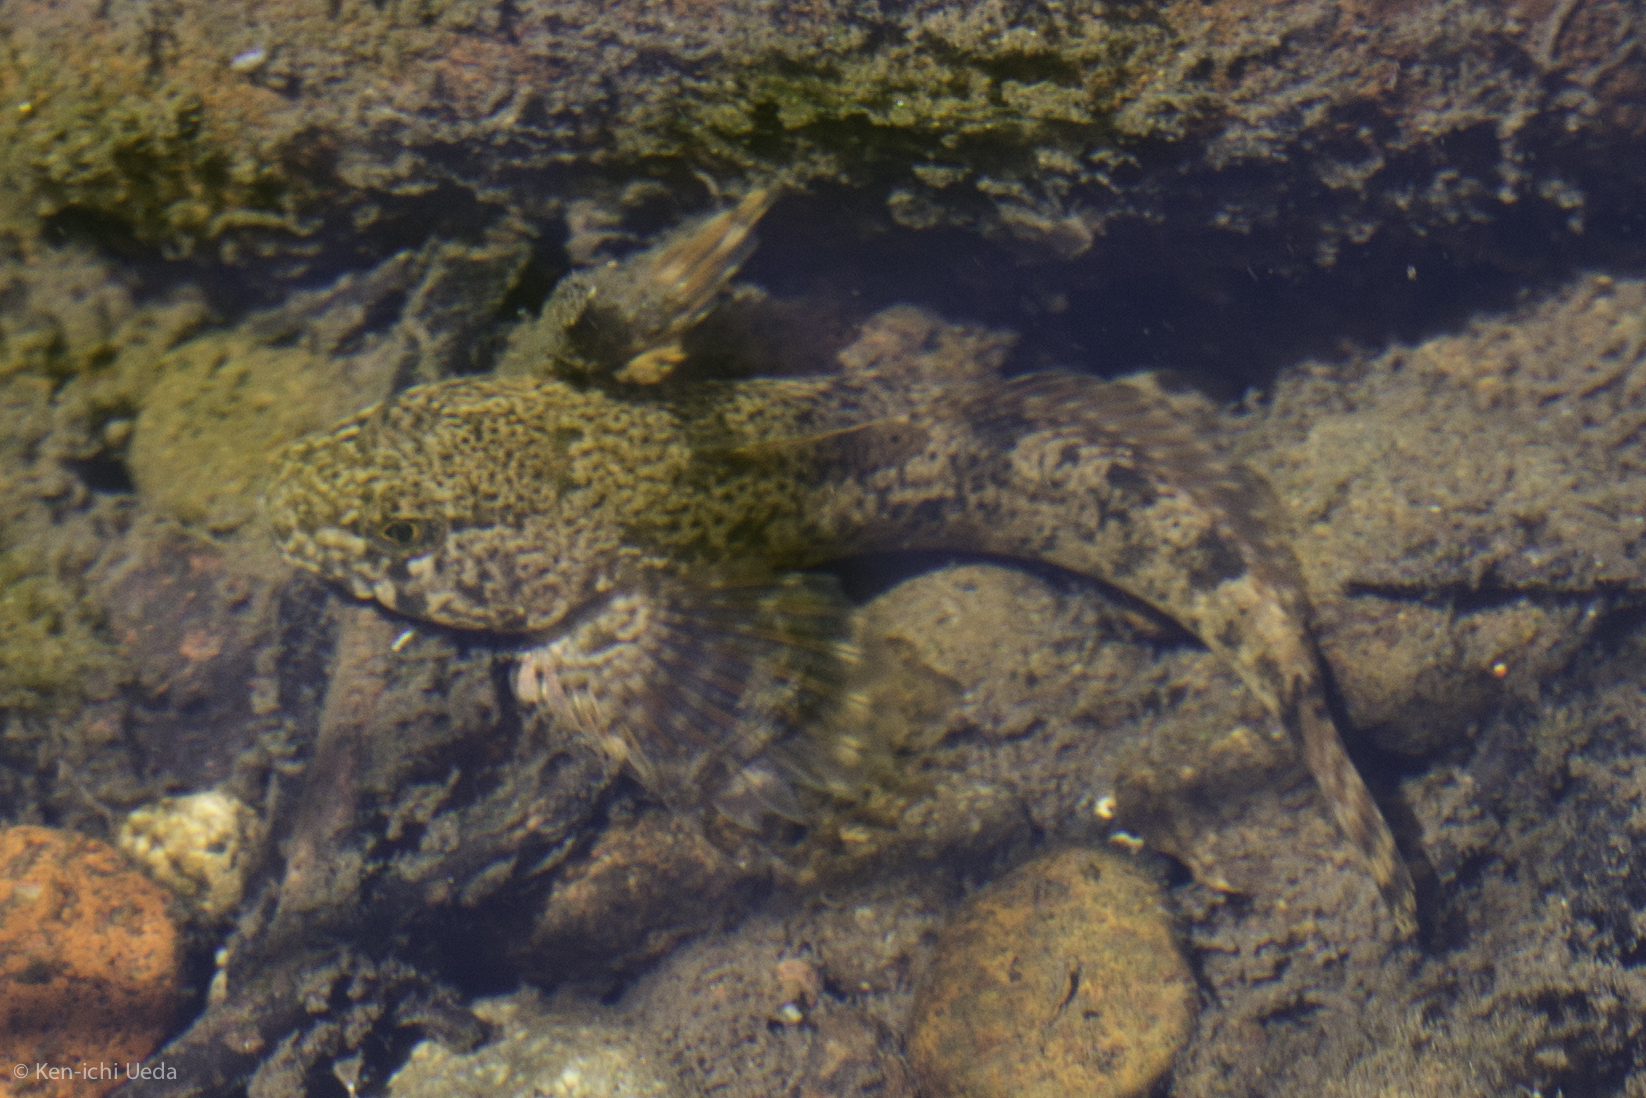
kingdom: Animalia
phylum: Chordata
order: Scorpaeniformes
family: Cottidae
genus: Cottus
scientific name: Cottus beldingii
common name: Paiute sculpin
